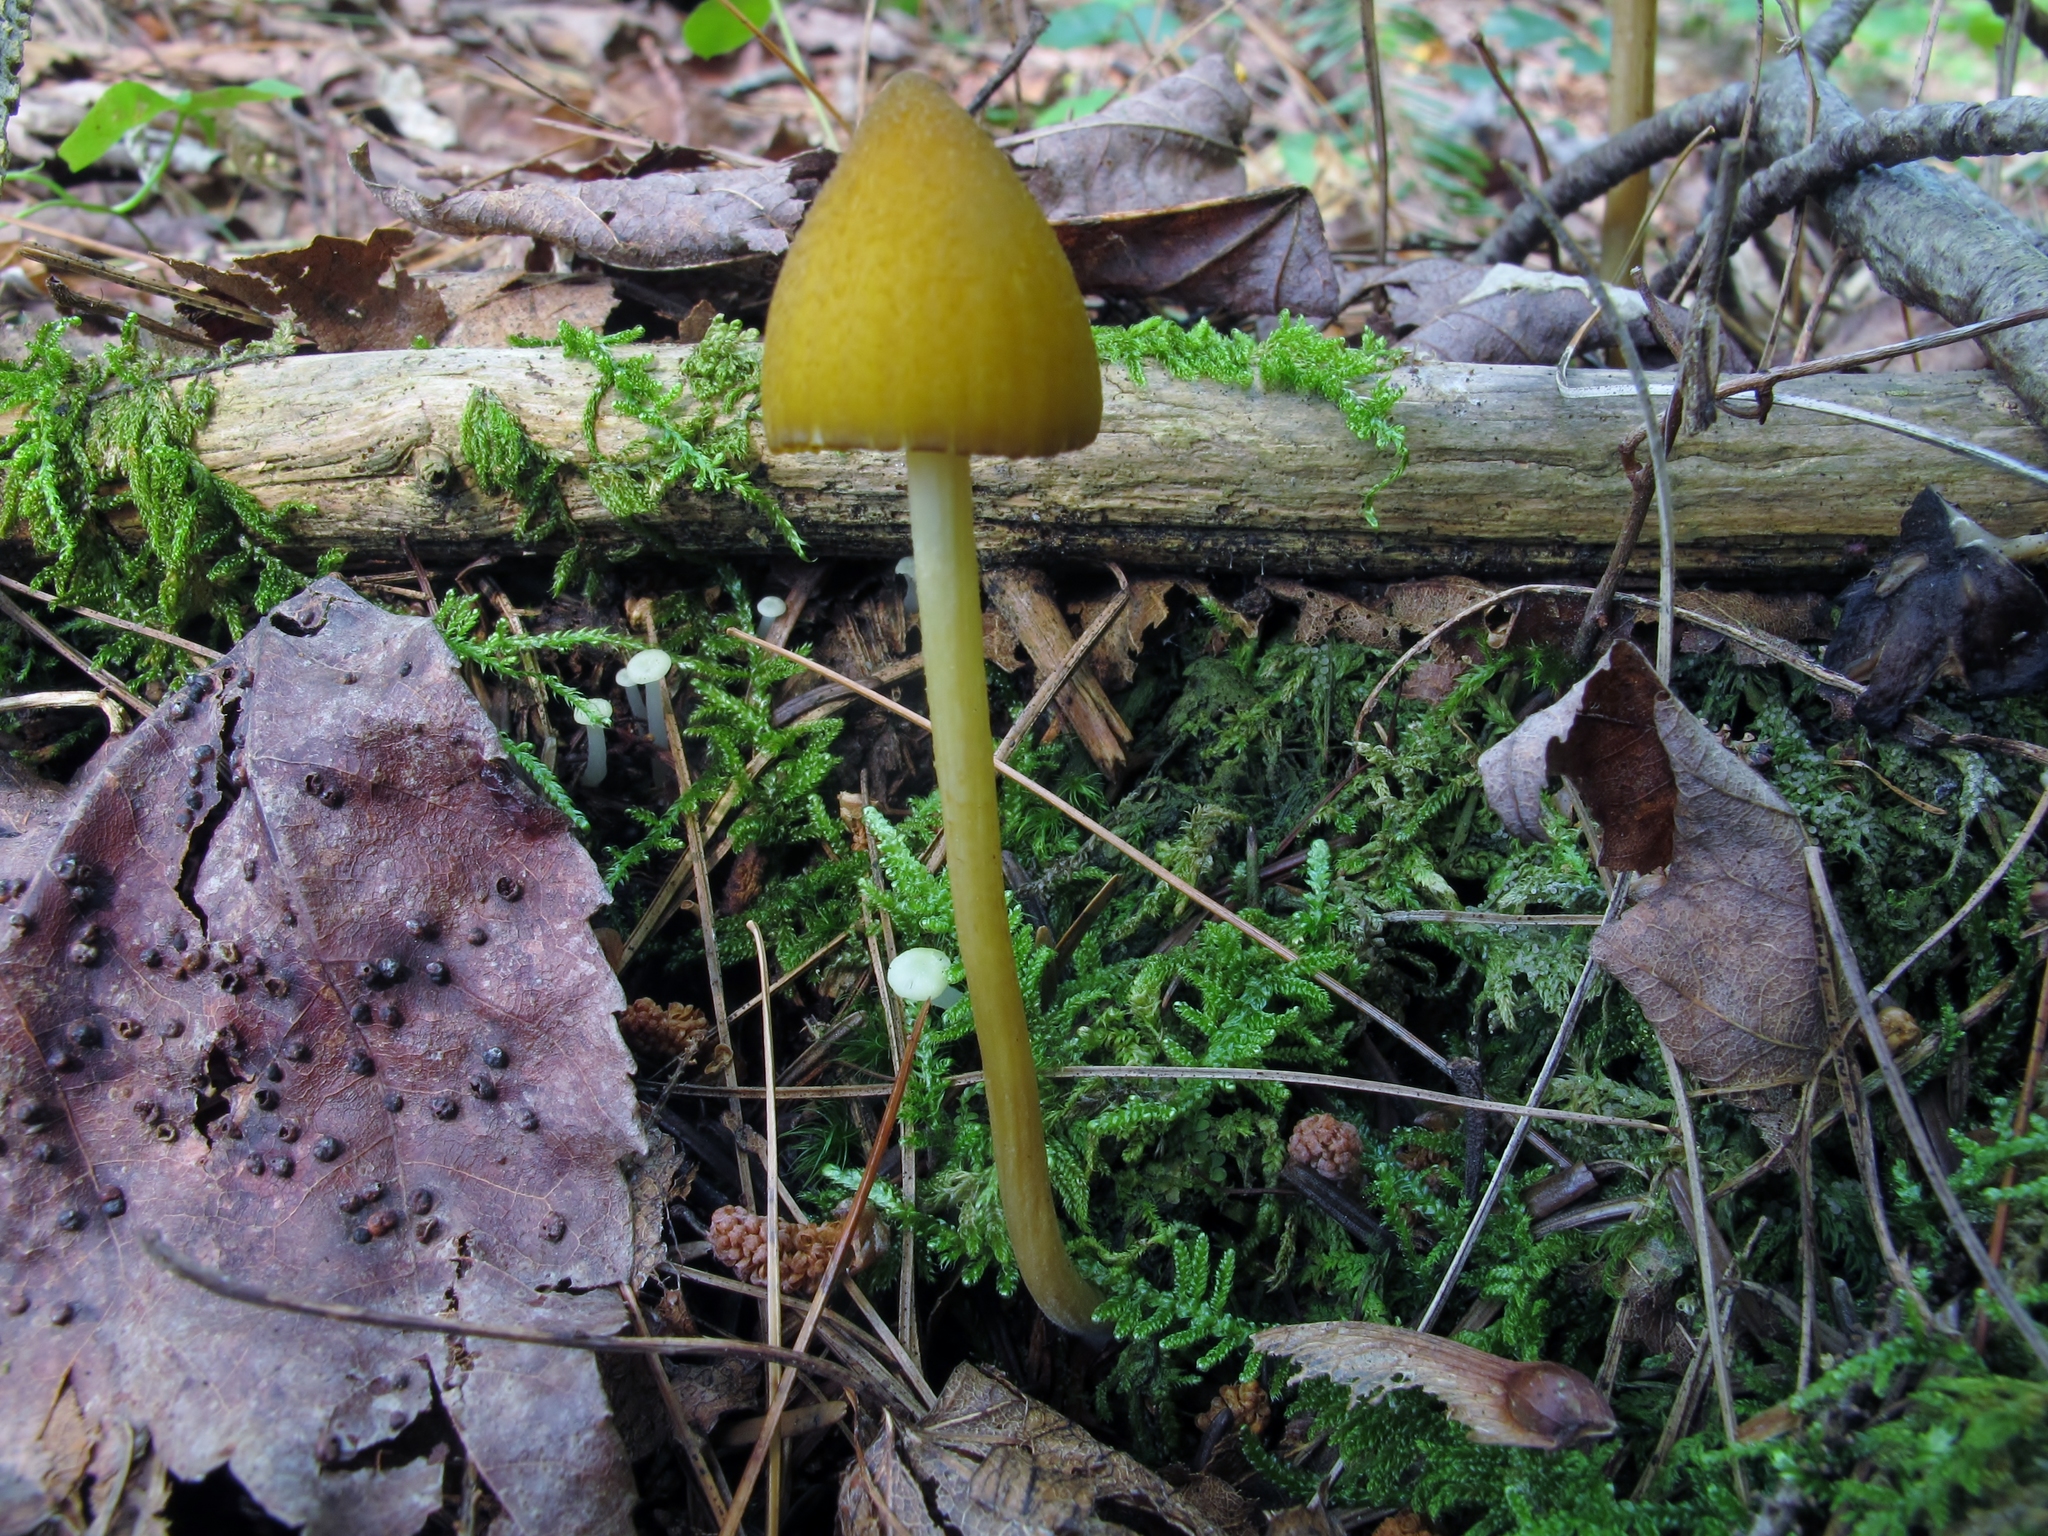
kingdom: Fungi
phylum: Basidiomycota
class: Agaricomycetes
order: Agaricales
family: Entolomataceae
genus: Entoloma
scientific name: Entoloma luteum
